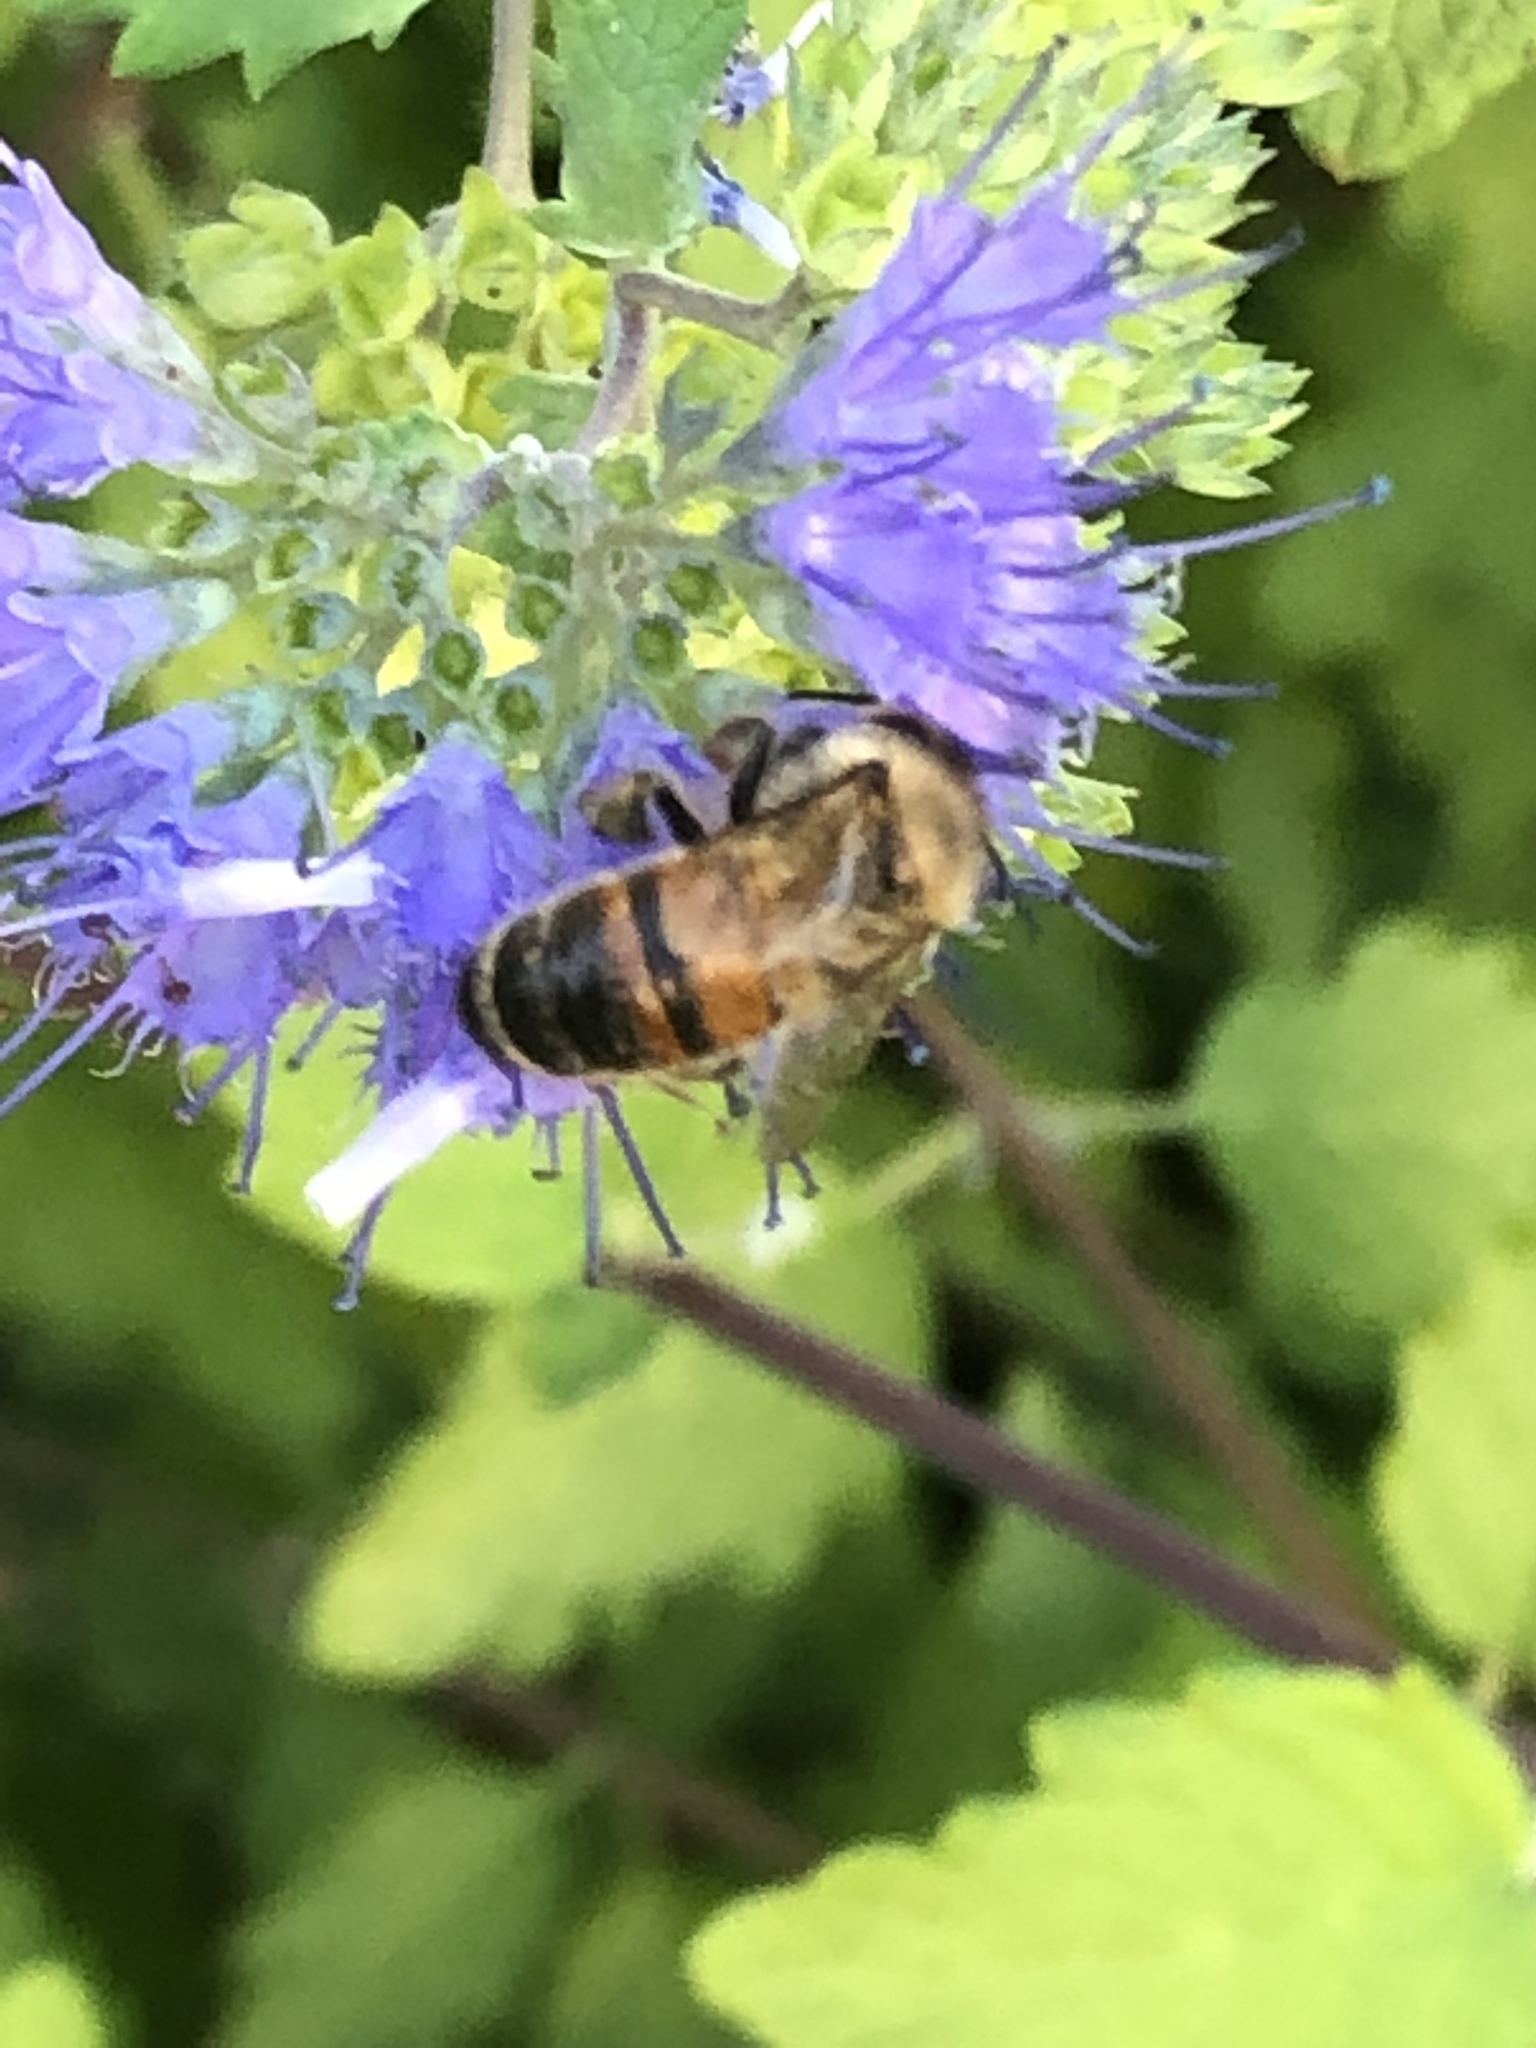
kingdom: Animalia
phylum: Arthropoda
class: Insecta
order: Hymenoptera
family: Apidae
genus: Apis
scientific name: Apis mellifera
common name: Honey bee
